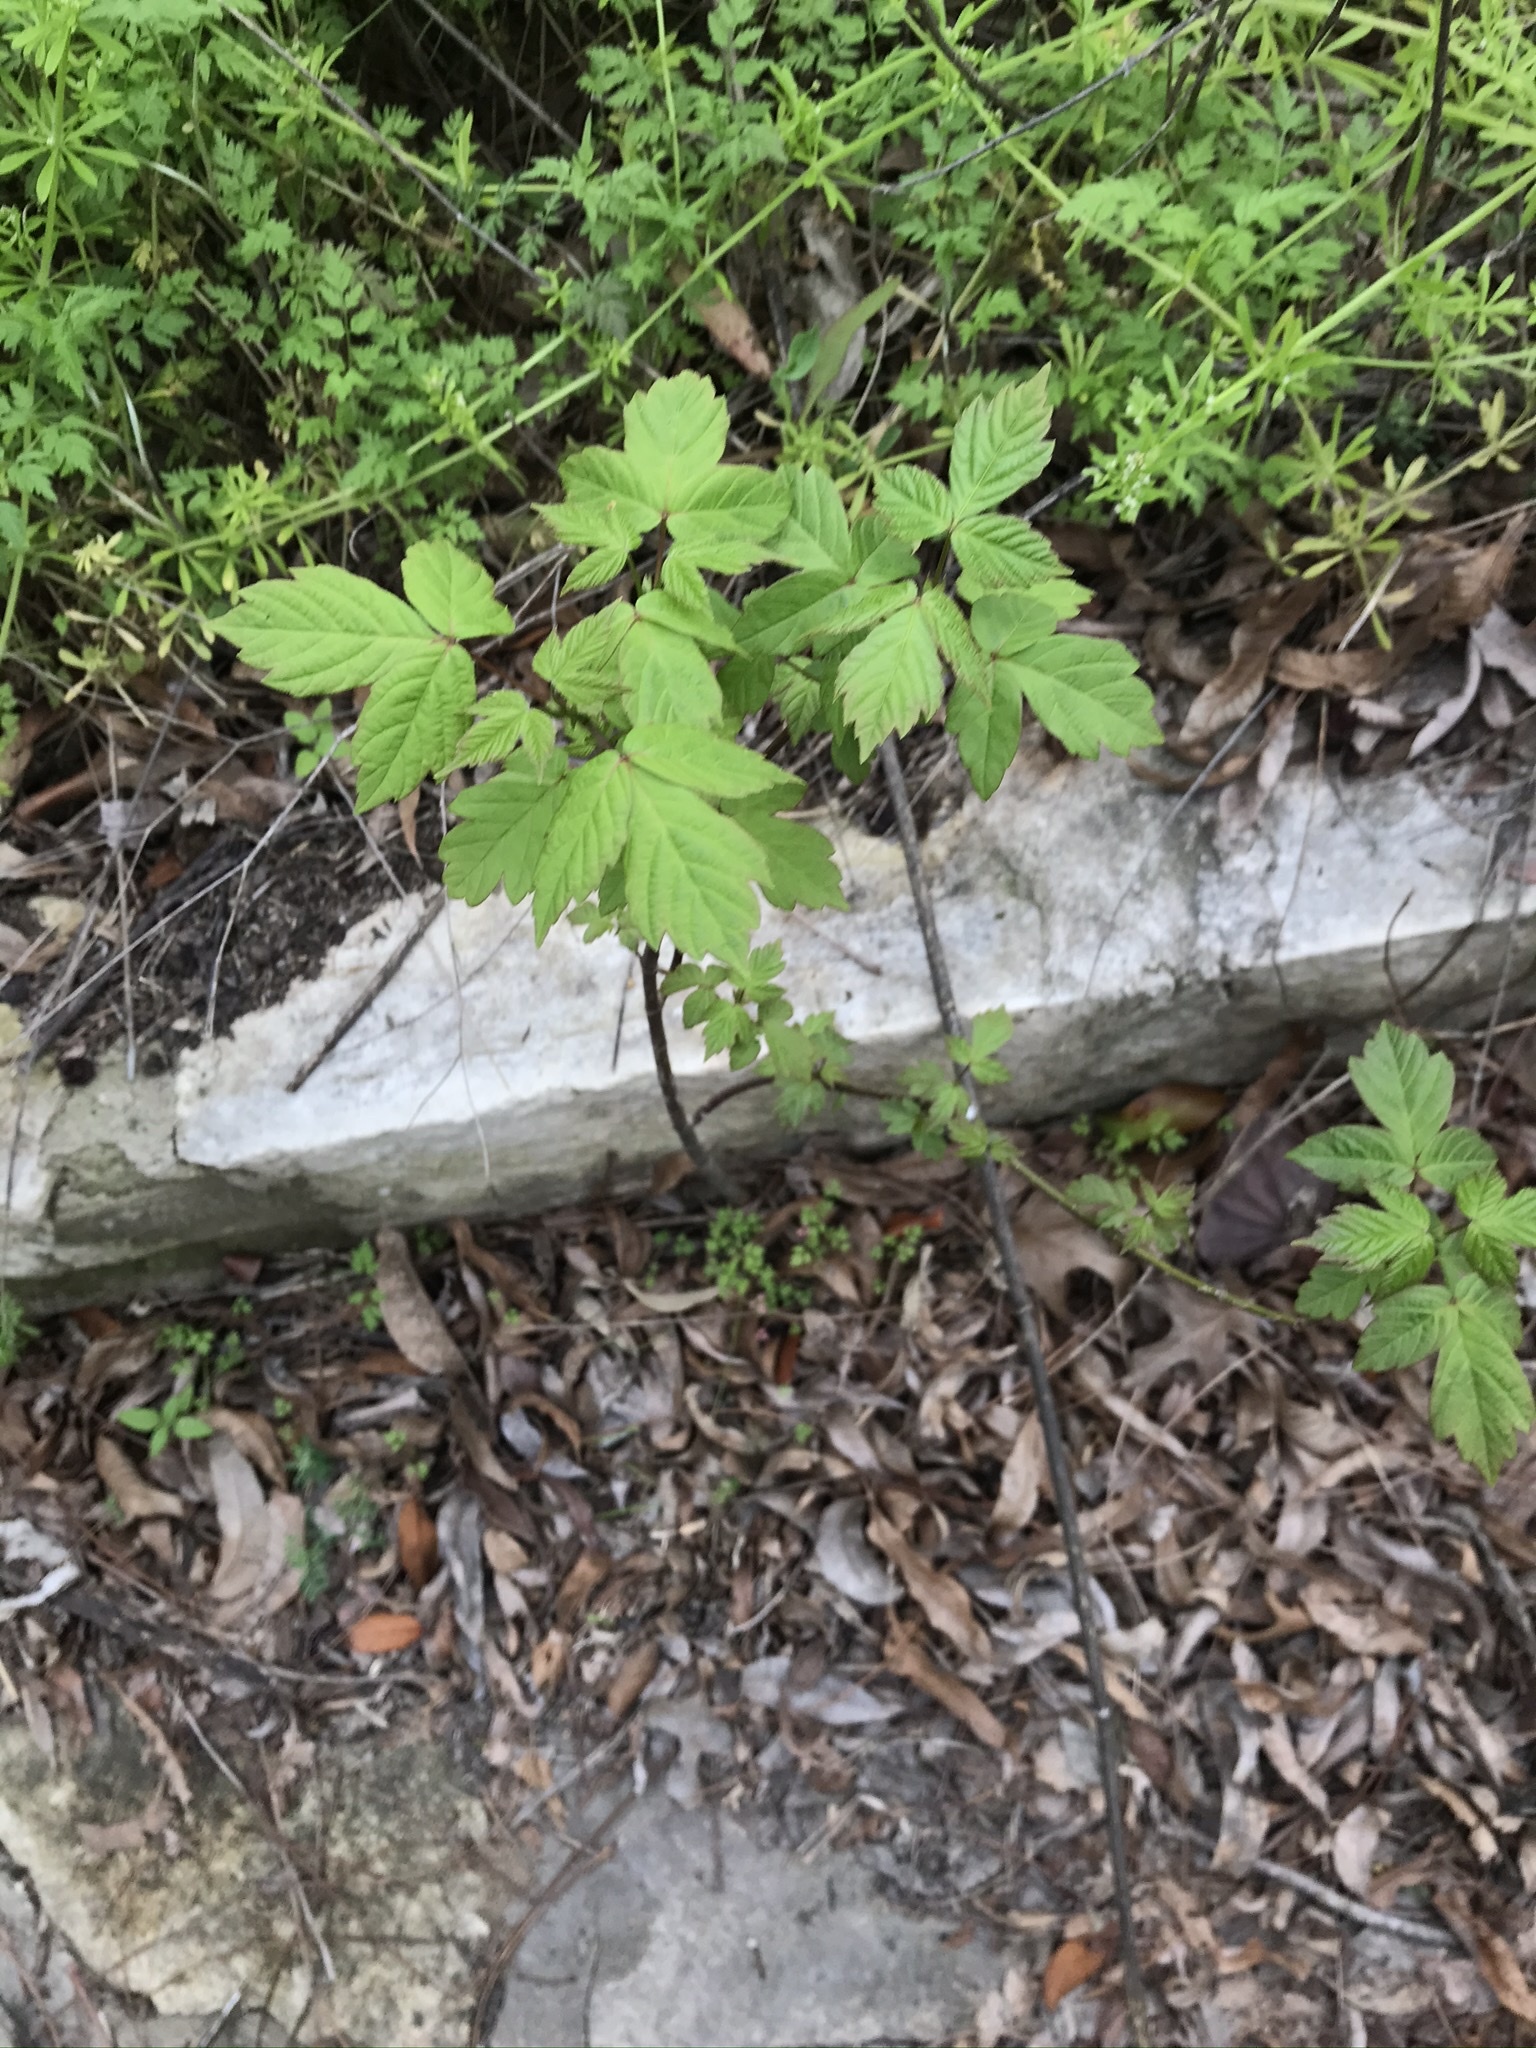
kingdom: Plantae
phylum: Tracheophyta
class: Magnoliopsida
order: Sapindales
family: Sapindaceae
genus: Acer
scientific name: Acer negundo
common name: Ashleaf maple
